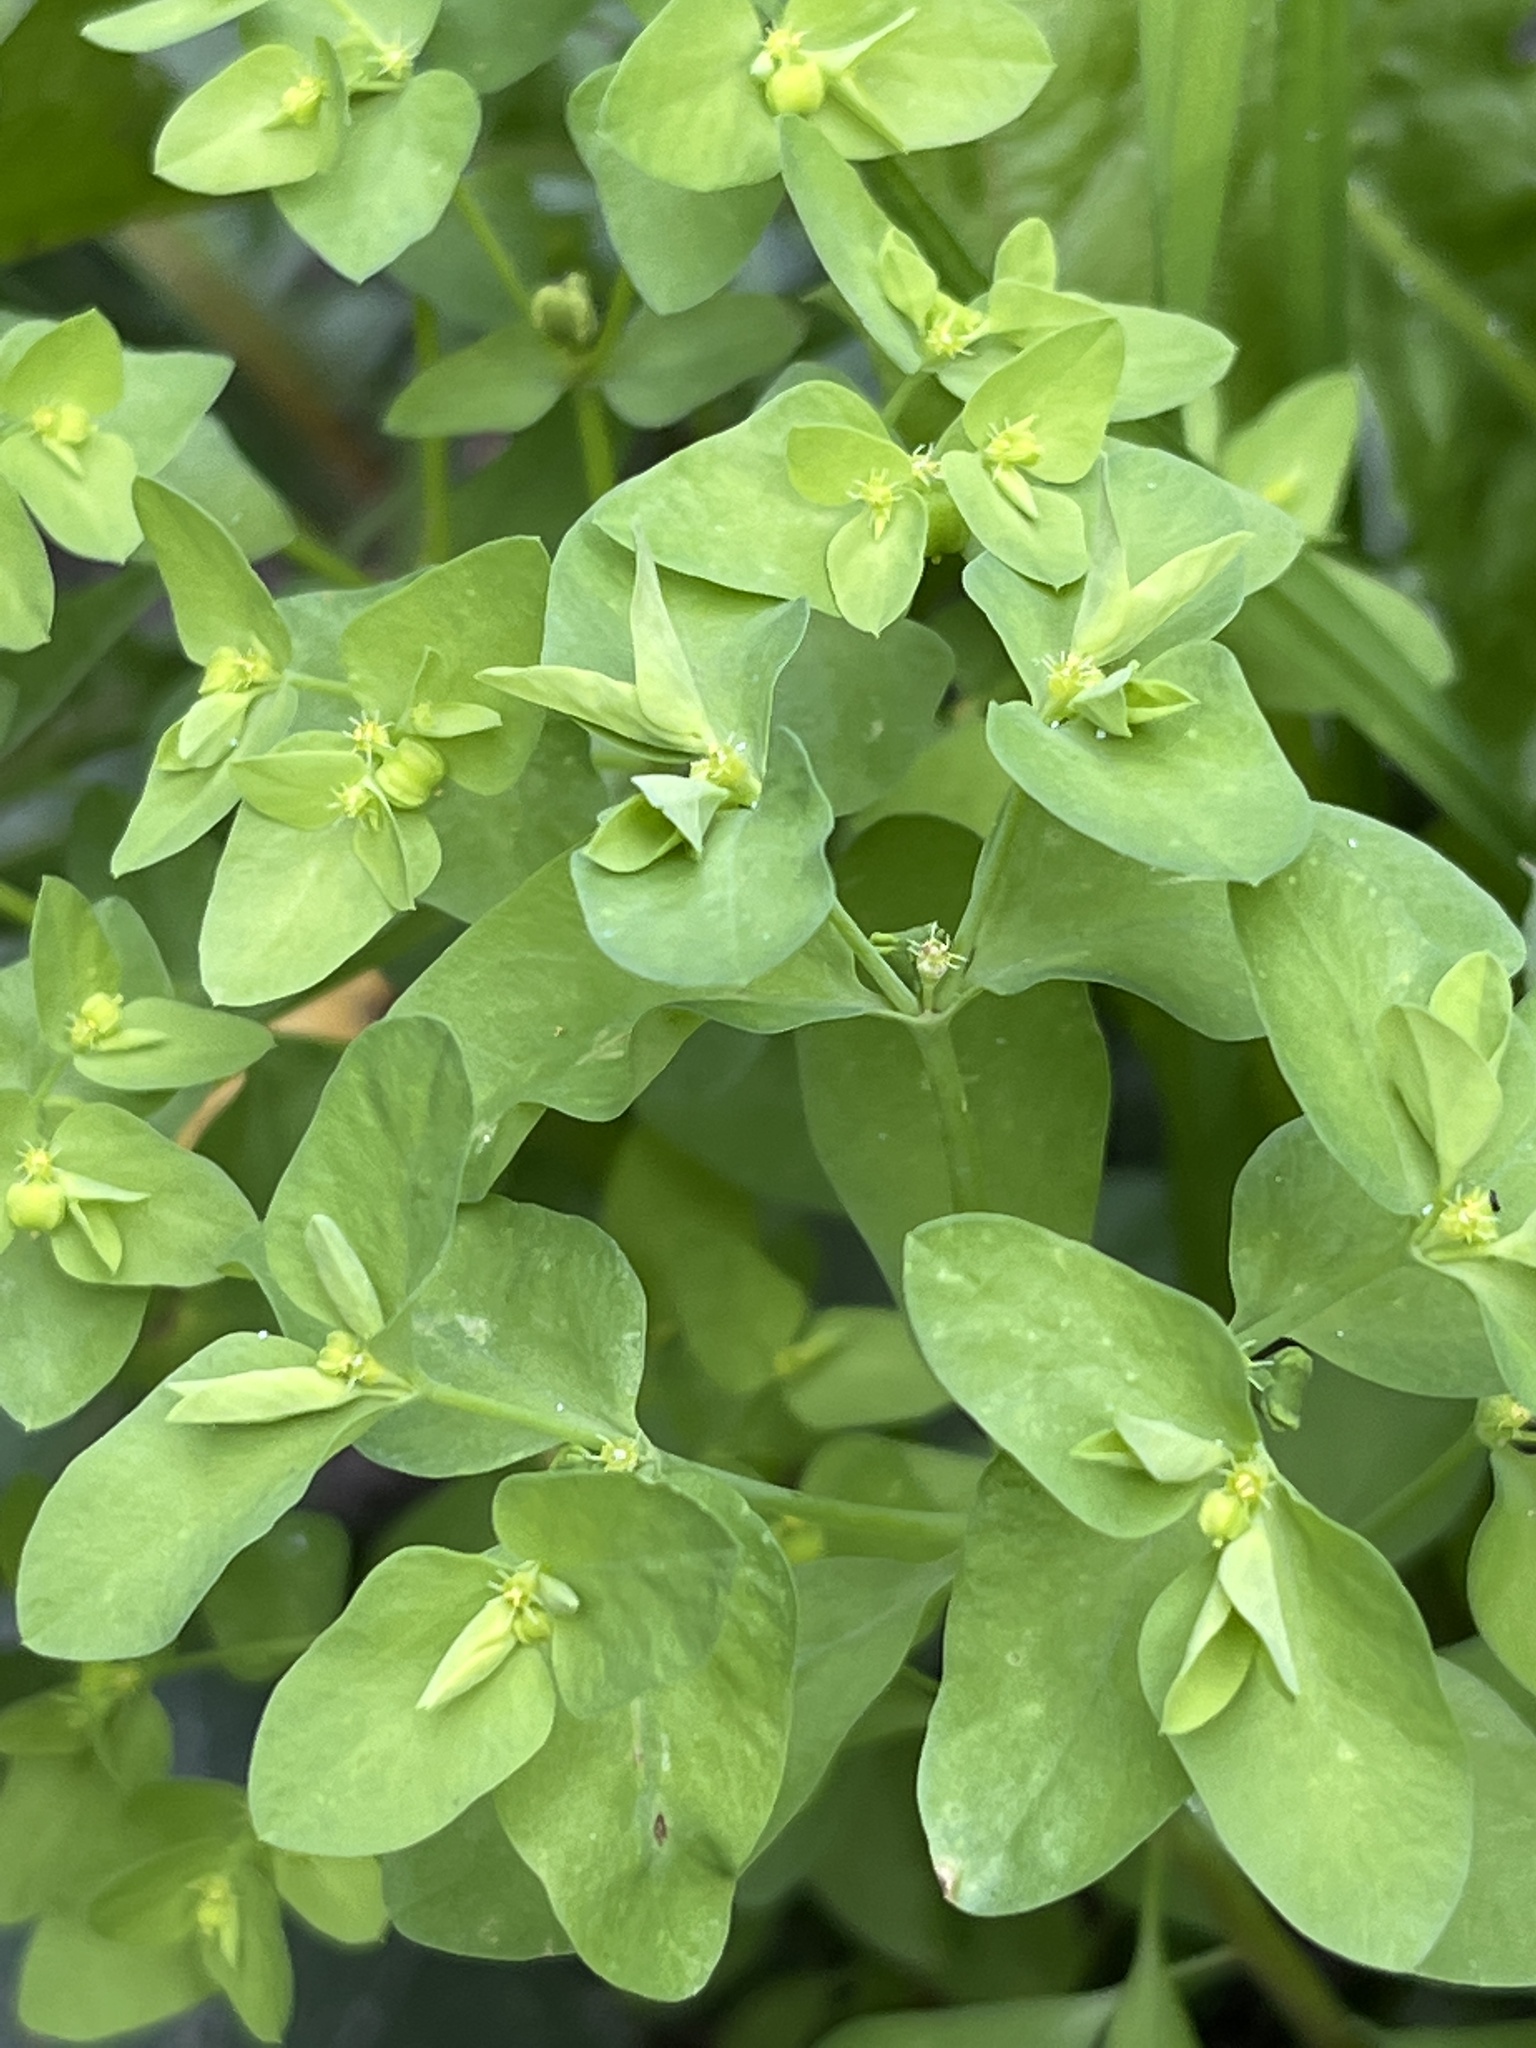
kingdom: Plantae
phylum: Tracheophyta
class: Magnoliopsida
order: Malpighiales
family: Euphorbiaceae
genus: Euphorbia
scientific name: Euphorbia peplus
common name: Petty spurge
